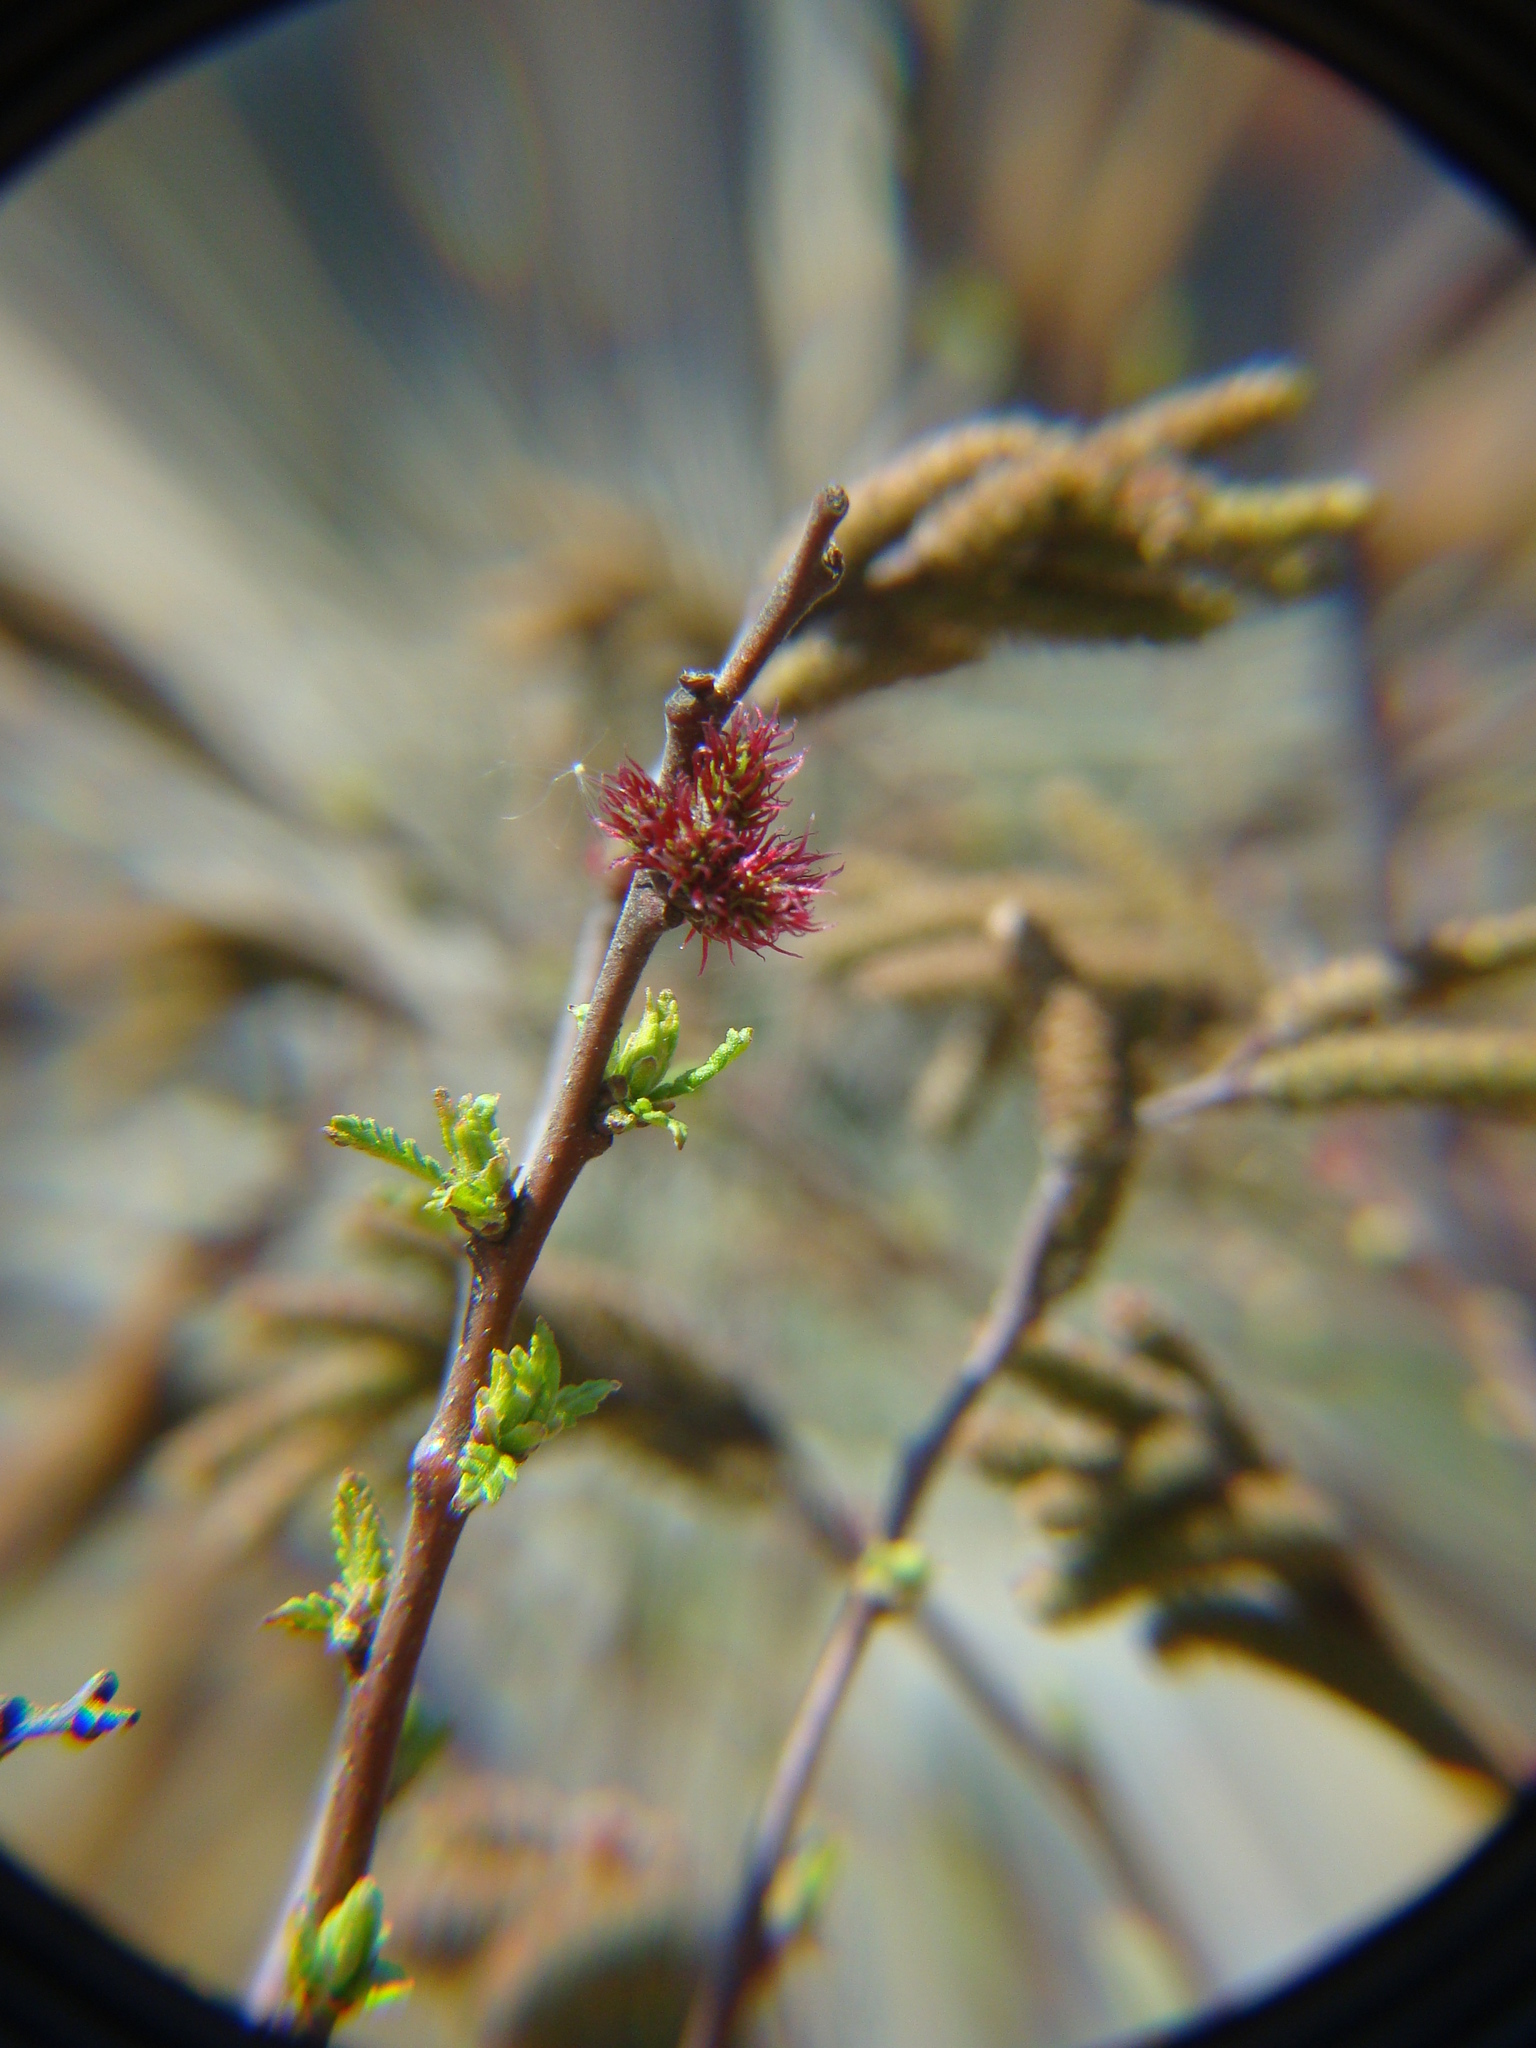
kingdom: Plantae
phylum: Tracheophyta
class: Magnoliopsida
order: Fagales
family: Myricaceae
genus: Comptonia
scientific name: Comptonia peregrina
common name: Sweet-fern
